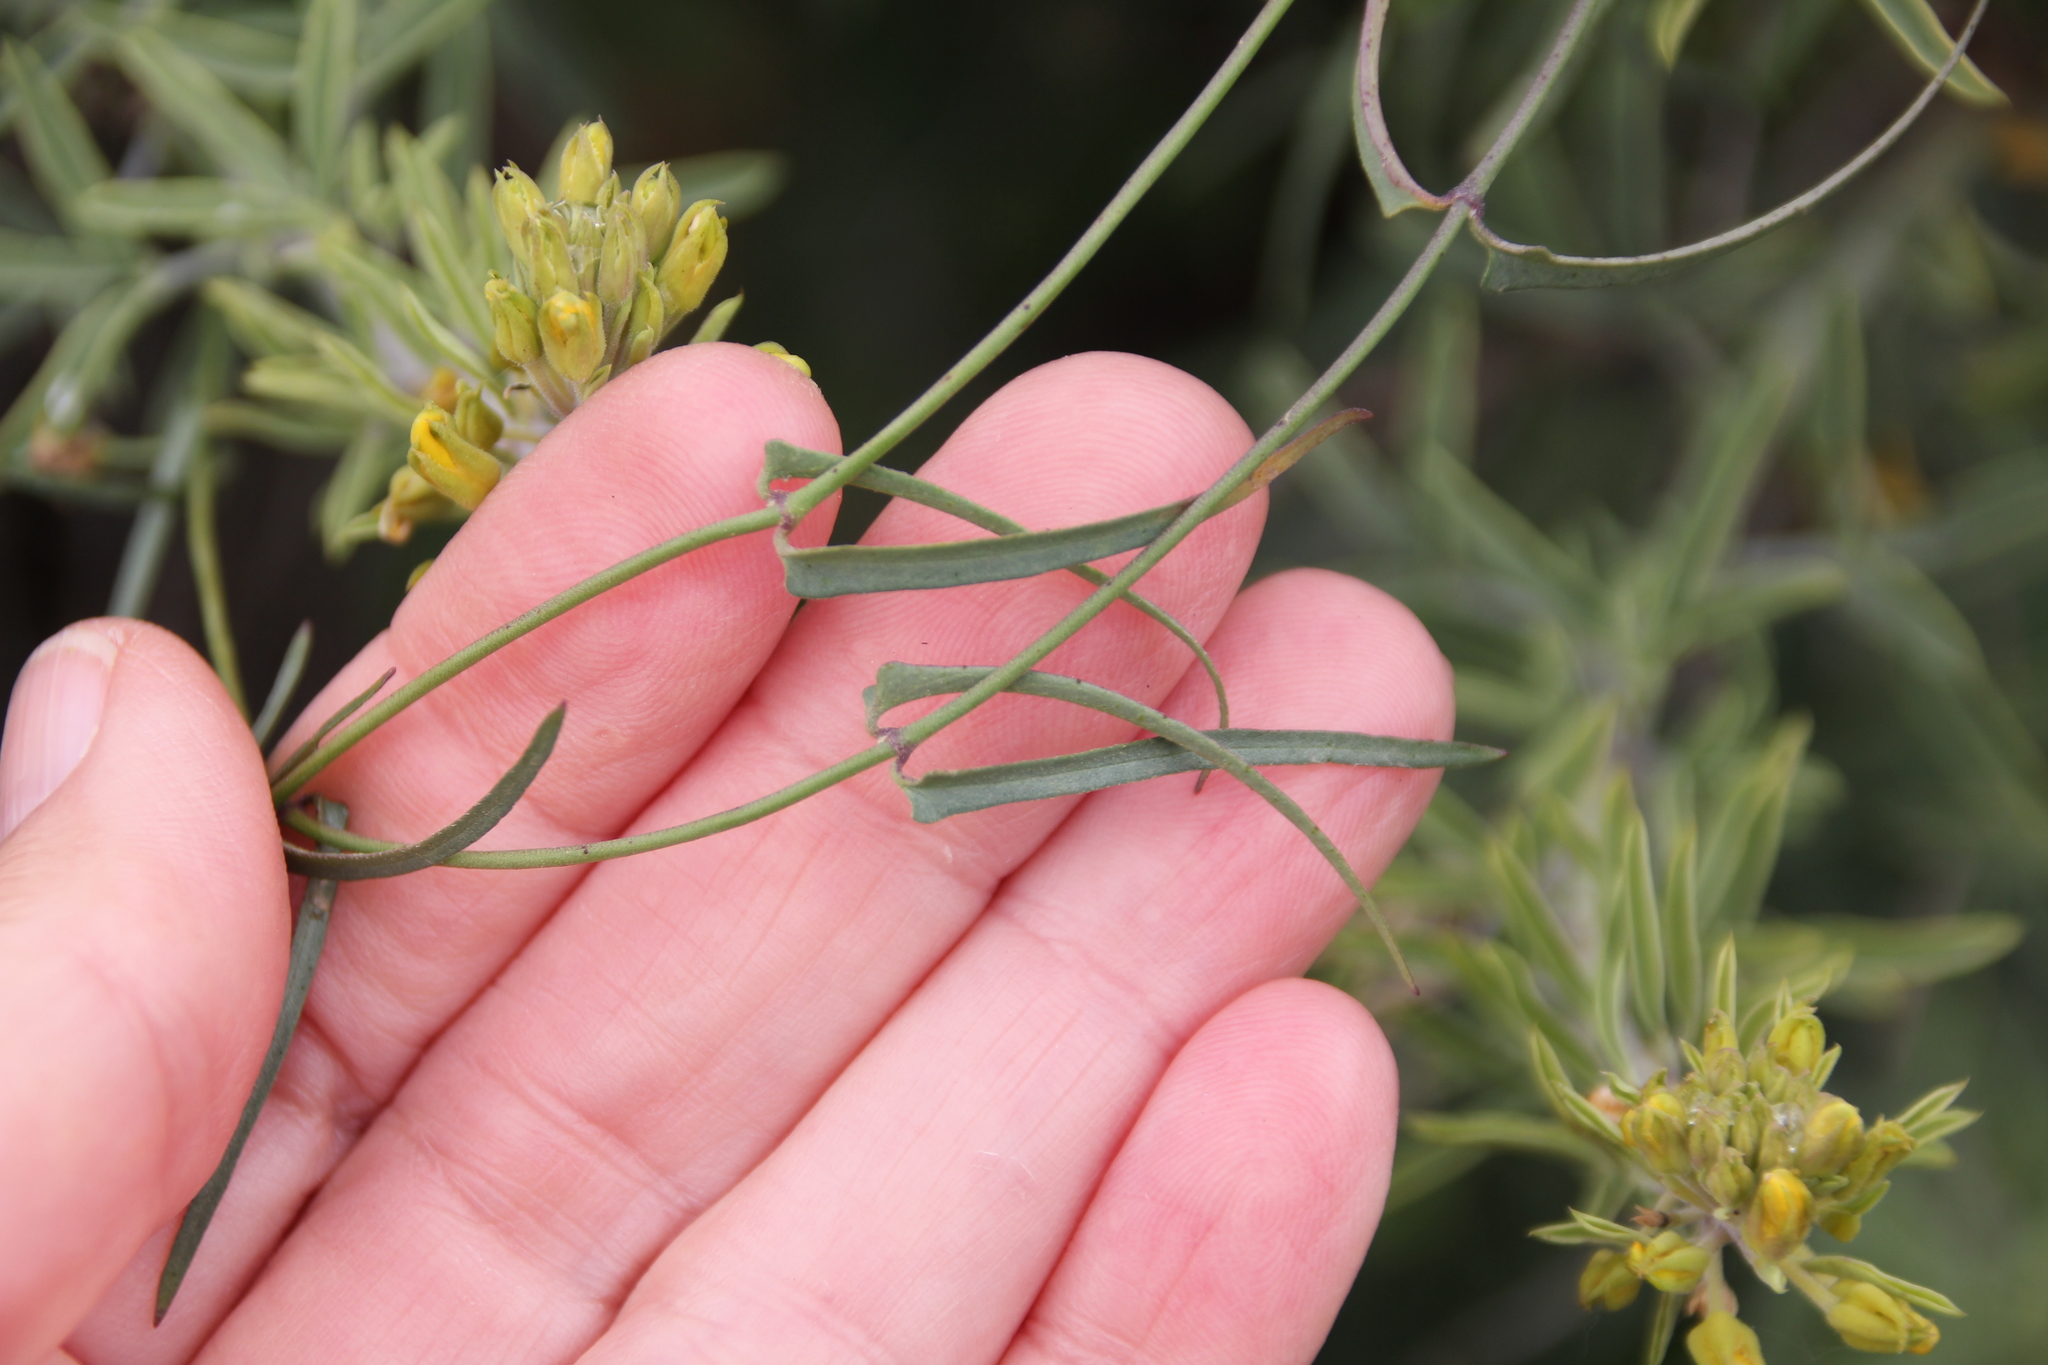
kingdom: Plantae
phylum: Tracheophyta
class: Magnoliopsida
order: Gentianales
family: Apocynaceae
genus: Funastrum
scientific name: Funastrum heterophyllum
